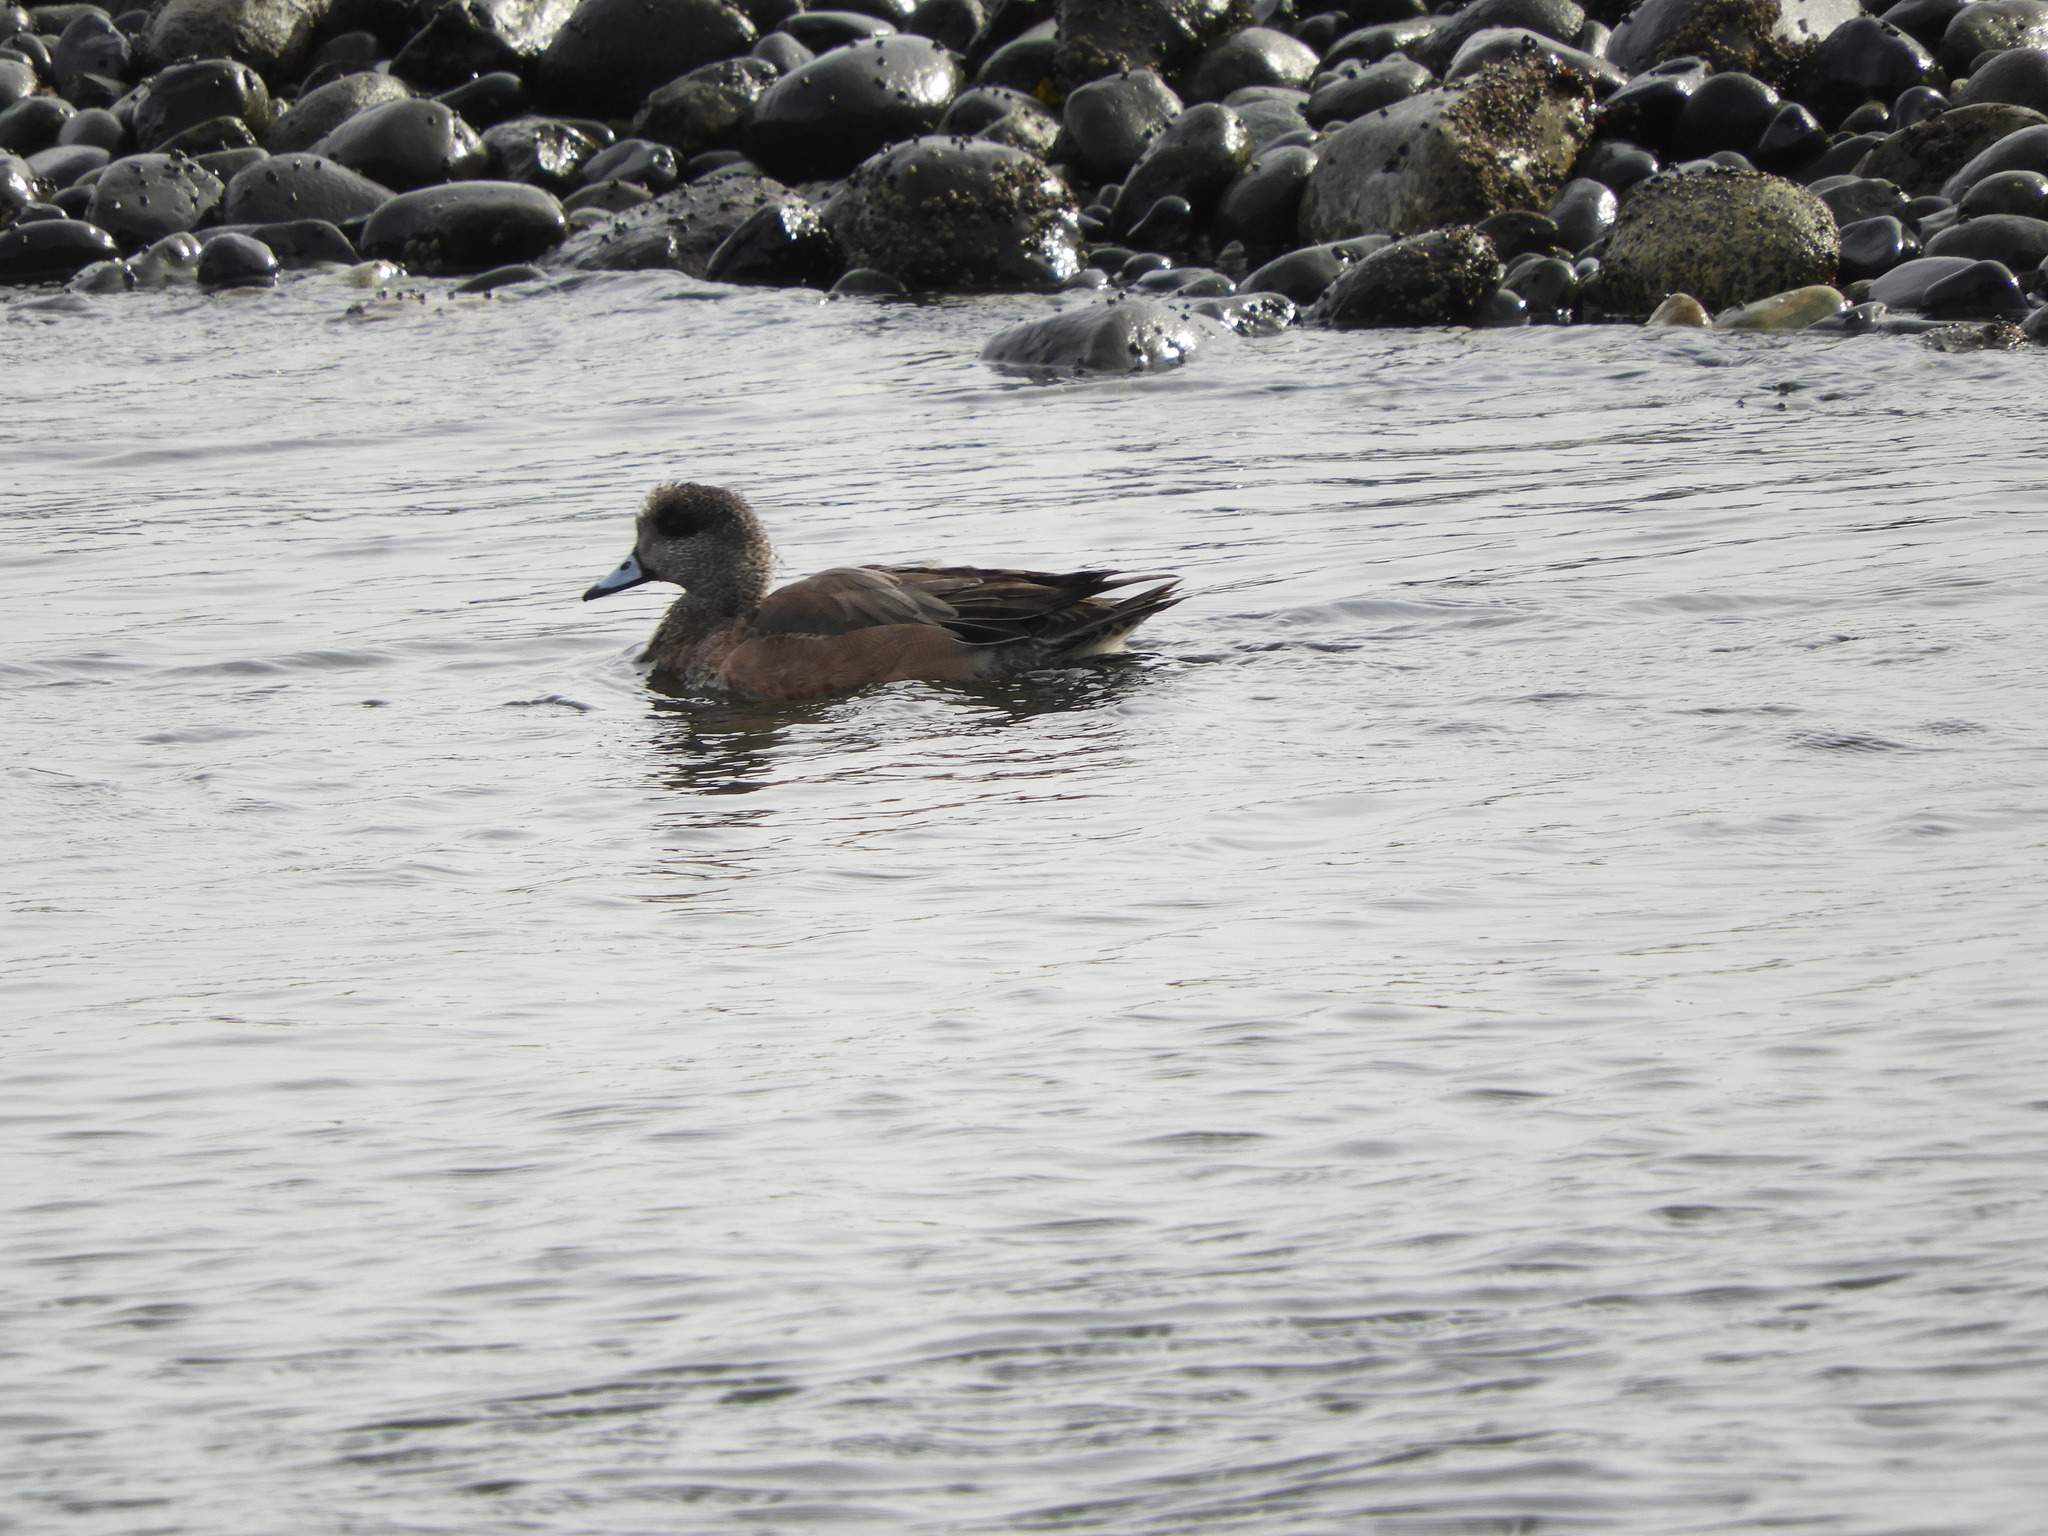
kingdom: Animalia
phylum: Chordata
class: Aves
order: Anseriformes
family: Anatidae
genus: Mareca
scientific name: Mareca americana
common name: American wigeon
